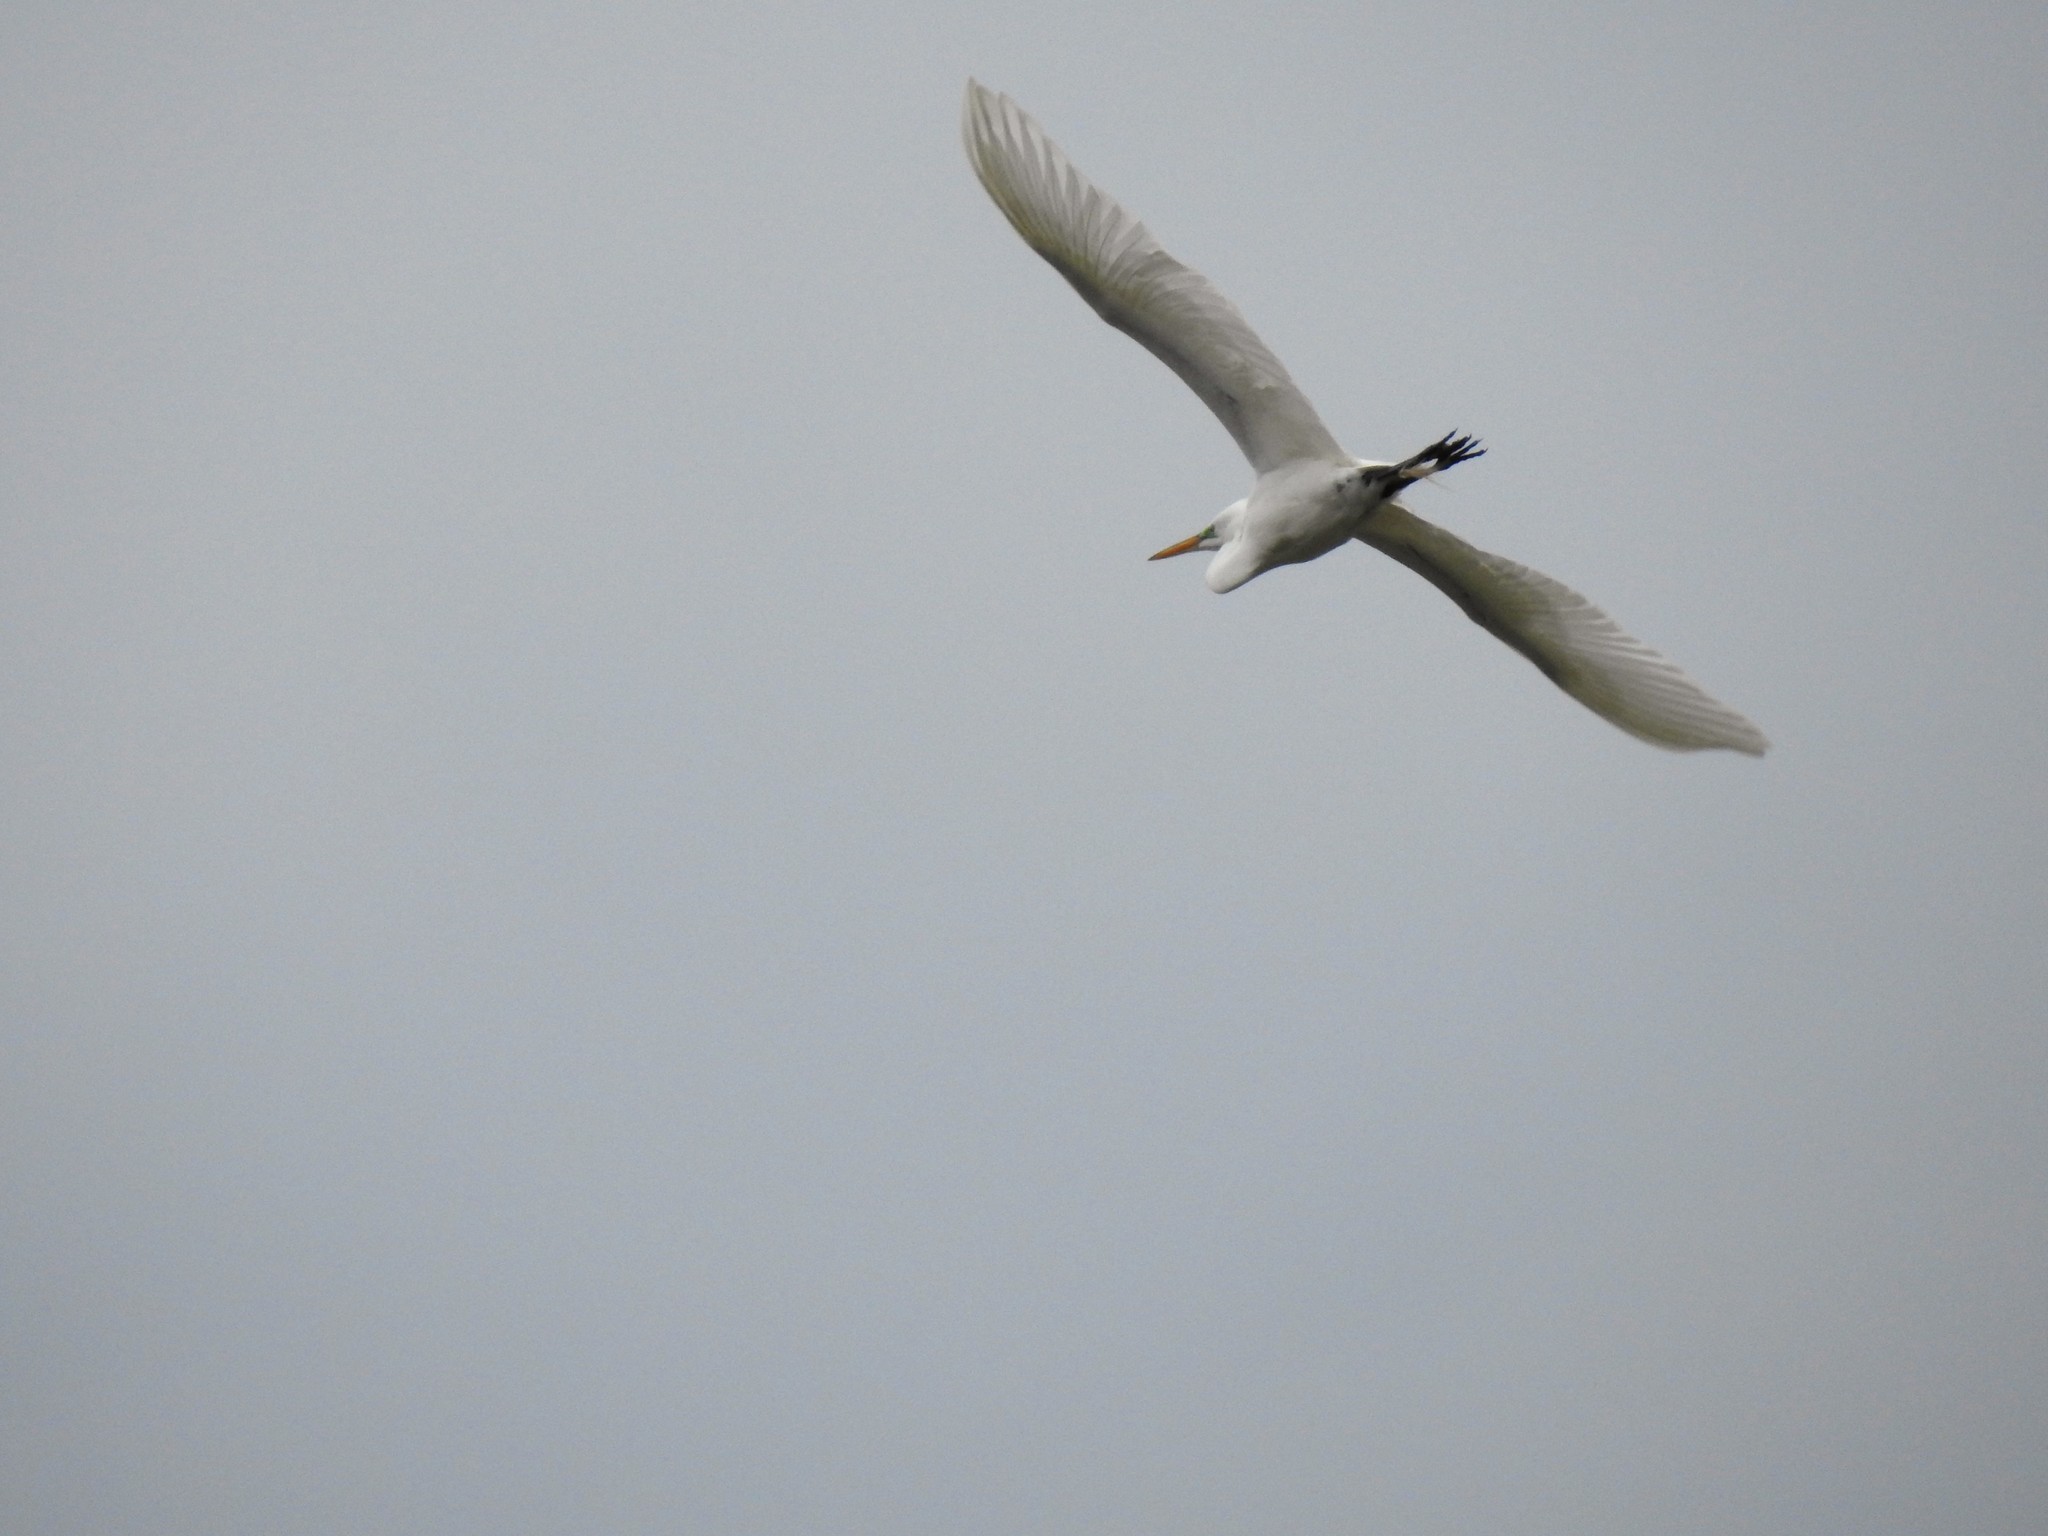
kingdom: Animalia
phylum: Chordata
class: Aves
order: Pelecaniformes
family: Ardeidae
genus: Ardea
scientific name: Ardea alba
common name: Great egret
